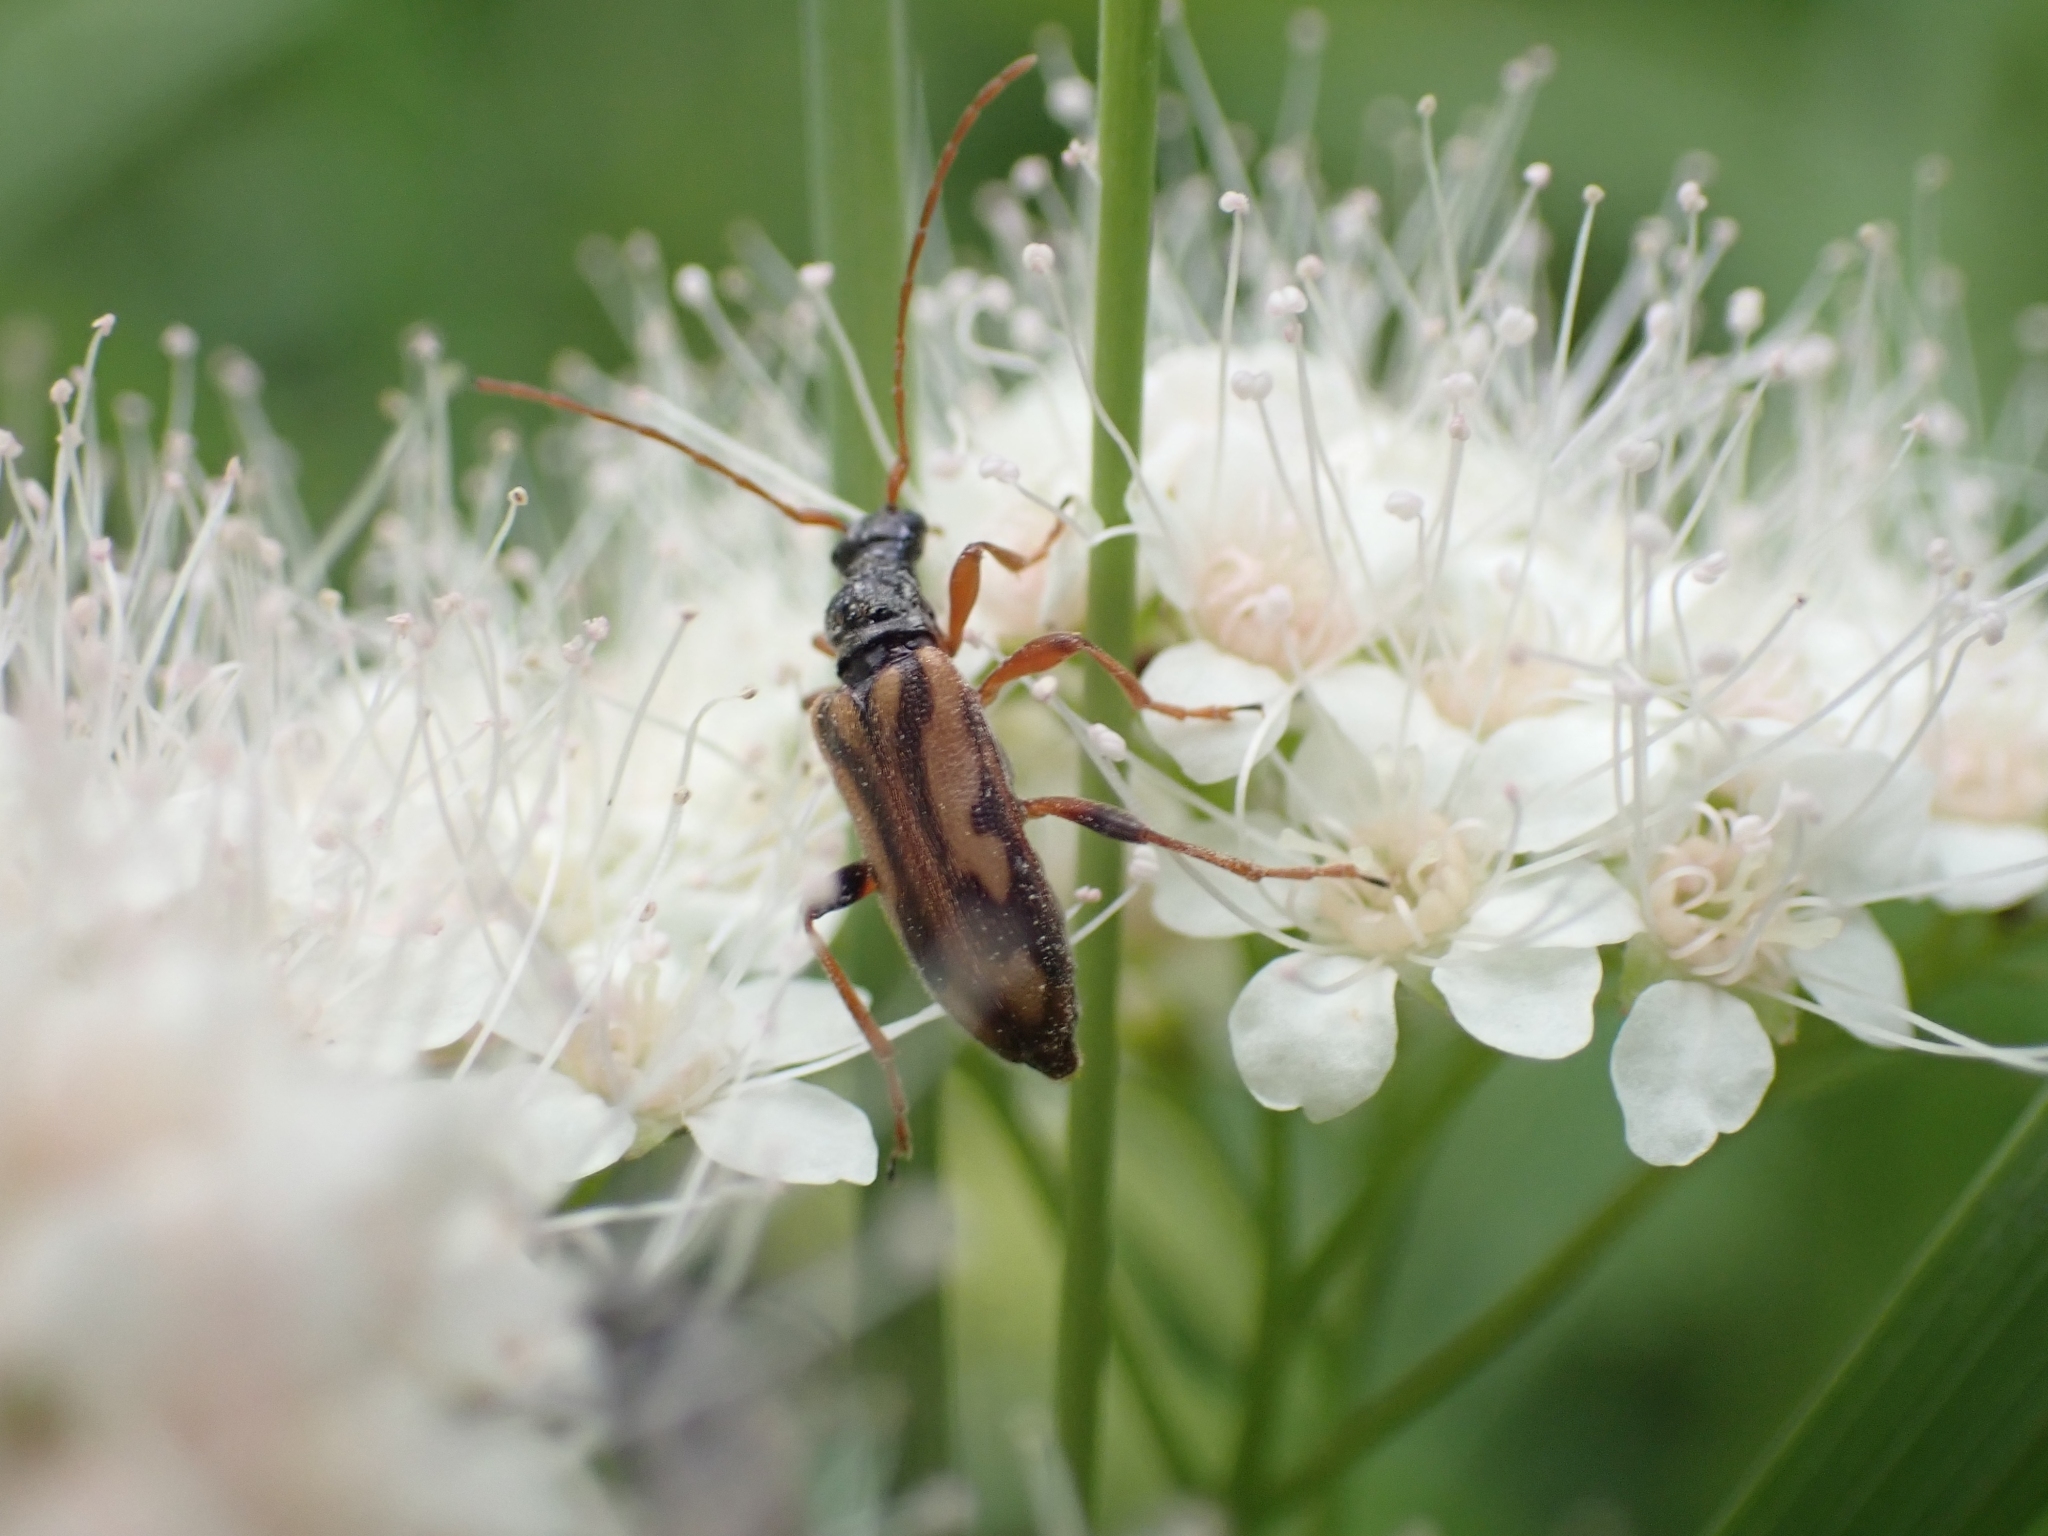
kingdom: Animalia
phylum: Arthropoda
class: Insecta
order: Coleoptera
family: Cerambycidae
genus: Pidonia
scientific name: Pidonia scripta
